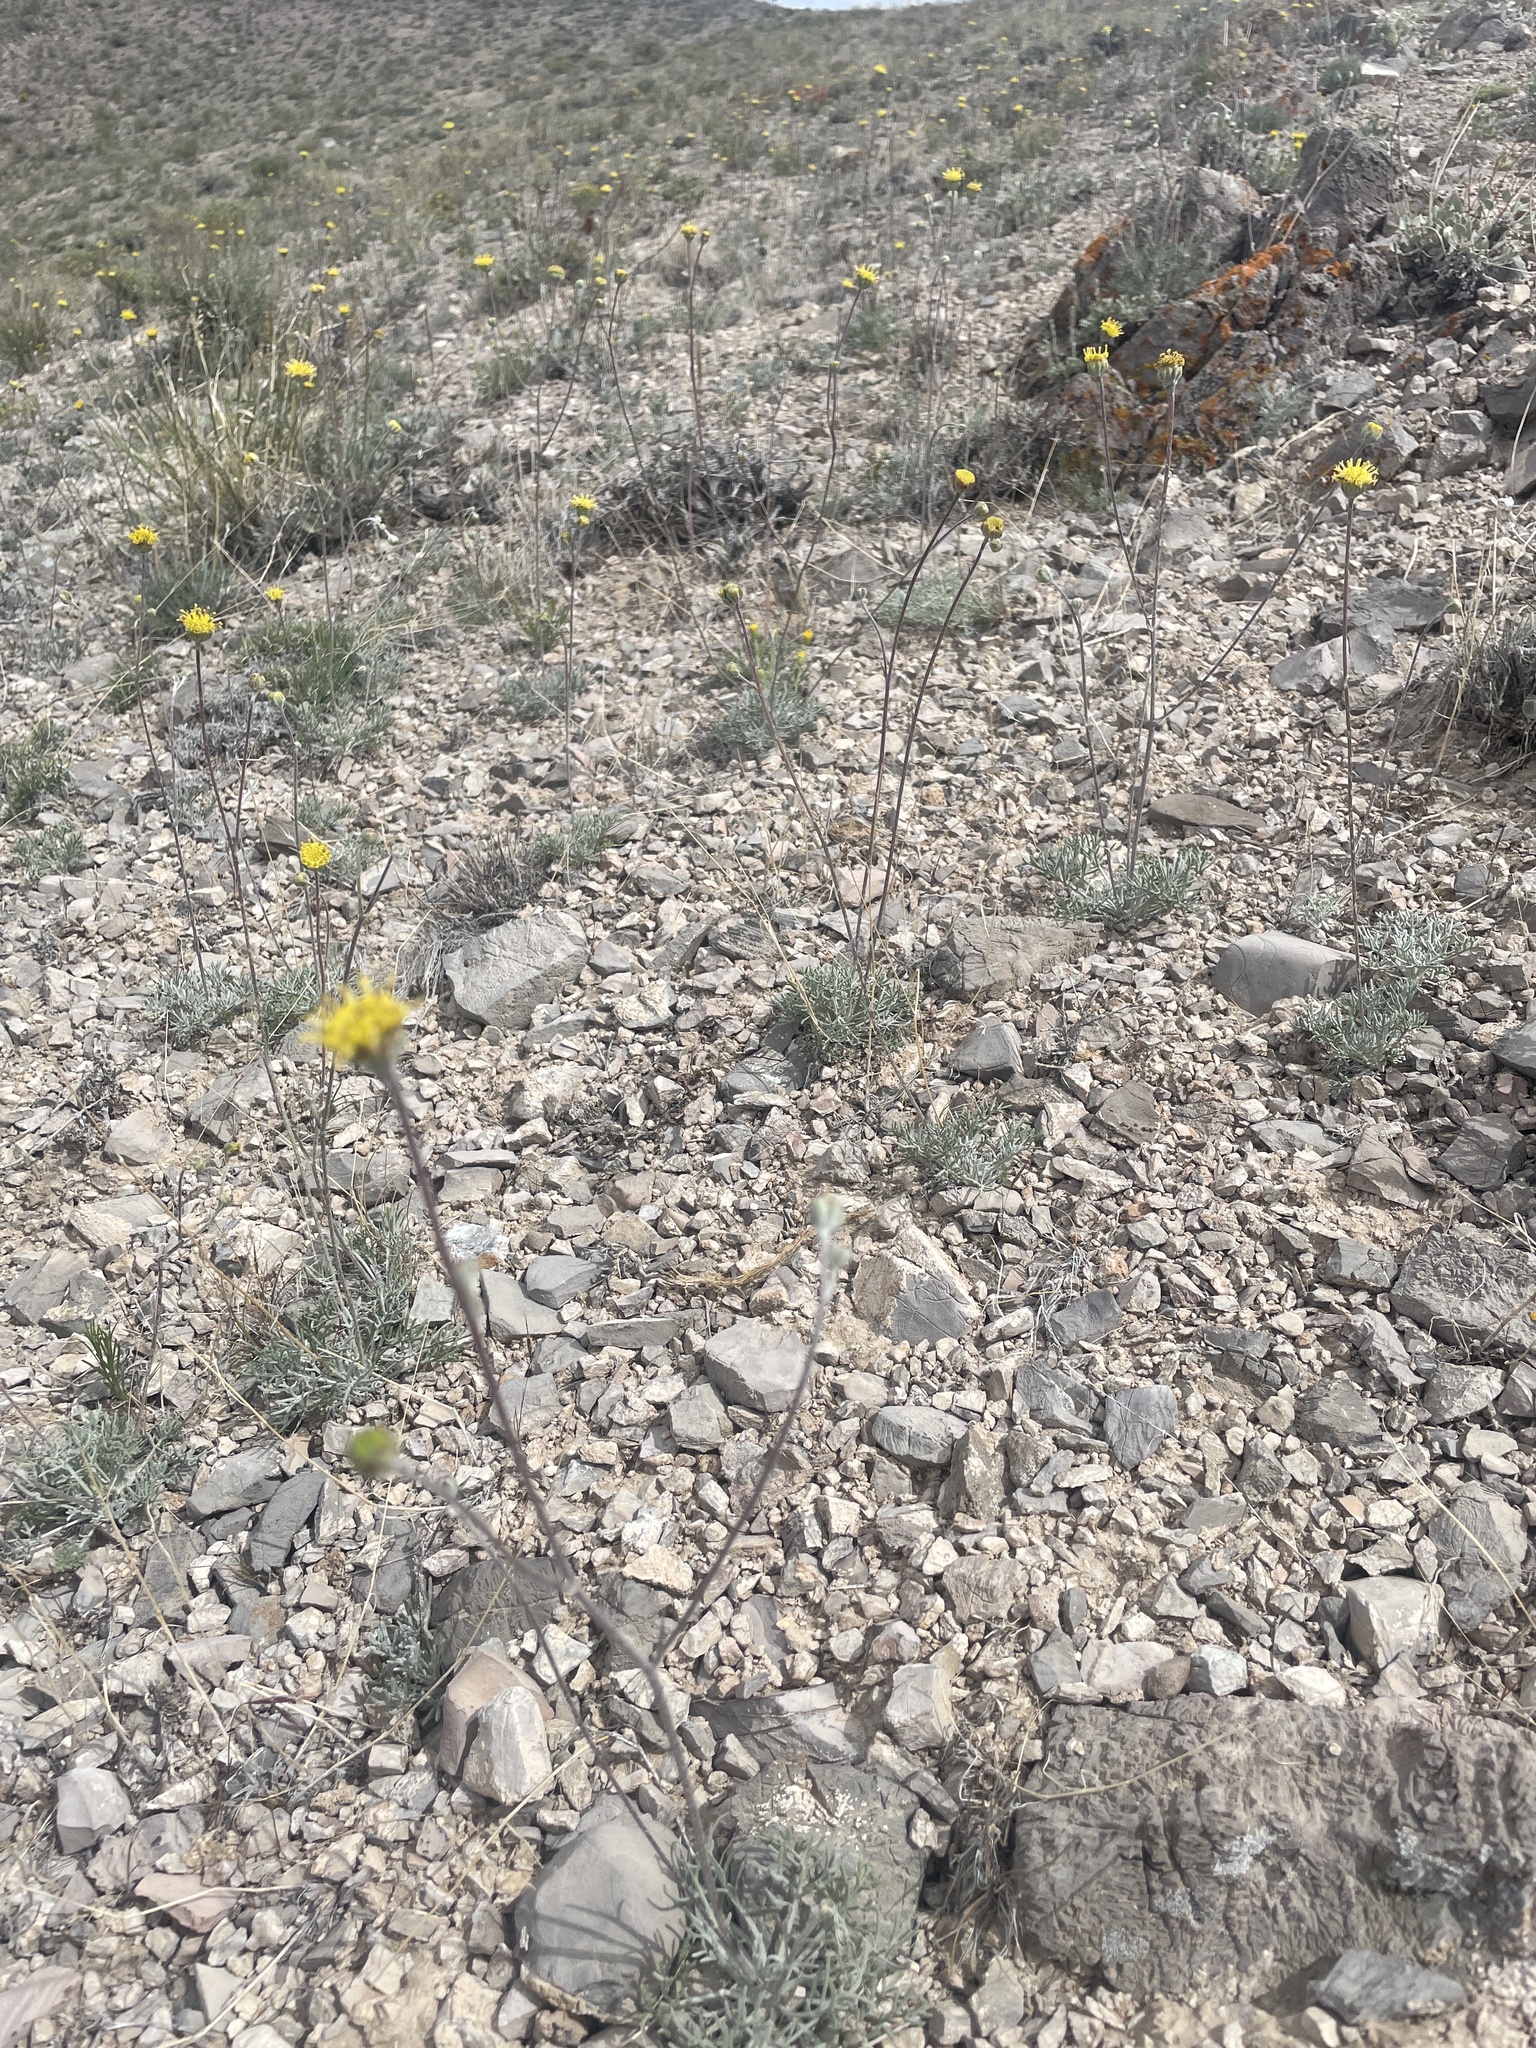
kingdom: Plantae
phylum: Tracheophyta
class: Magnoliopsida
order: Asterales
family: Asteraceae
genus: Hymenopappus
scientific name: Hymenopappus filifolius
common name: Columbia cutleaf
